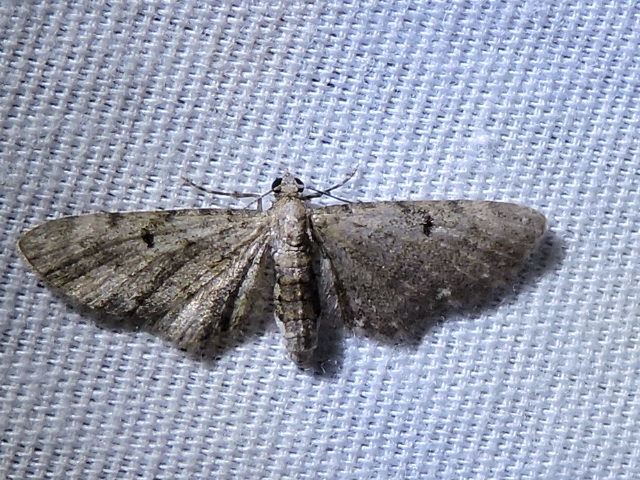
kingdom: Animalia
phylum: Arthropoda
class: Insecta
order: Lepidoptera
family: Geometridae
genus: Eupithecia
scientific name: Eupithecia miserulata
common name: Common eupithecia
